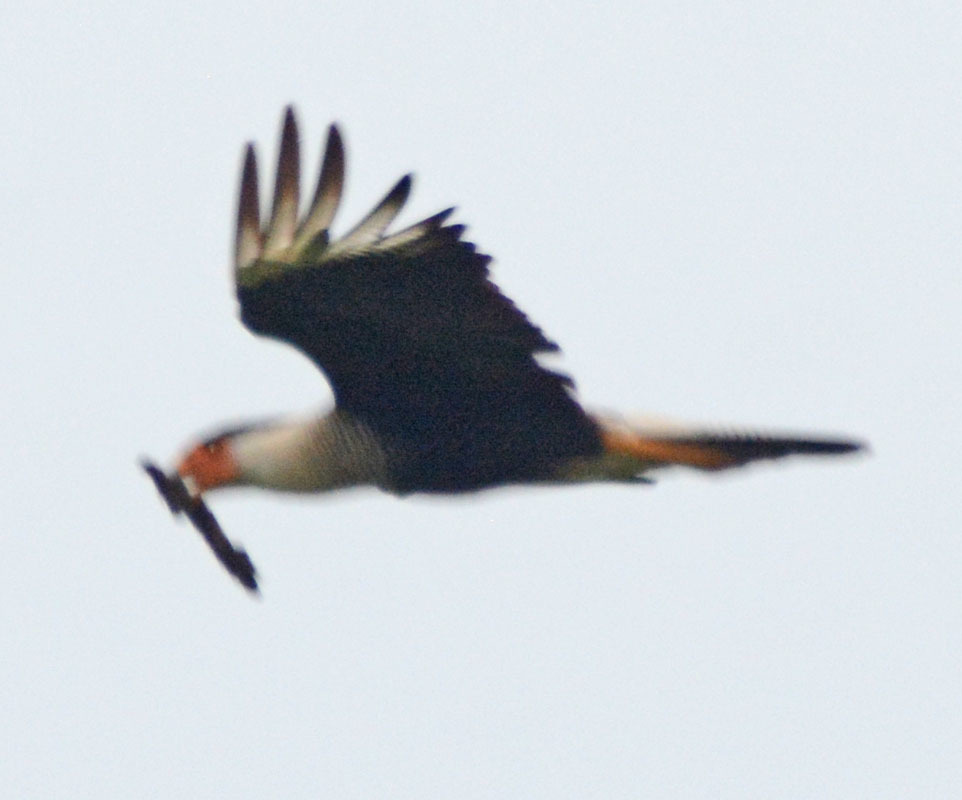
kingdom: Animalia
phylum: Chordata
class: Aves
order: Falconiformes
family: Falconidae
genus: Caracara
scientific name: Caracara plancus
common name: Southern caracara
